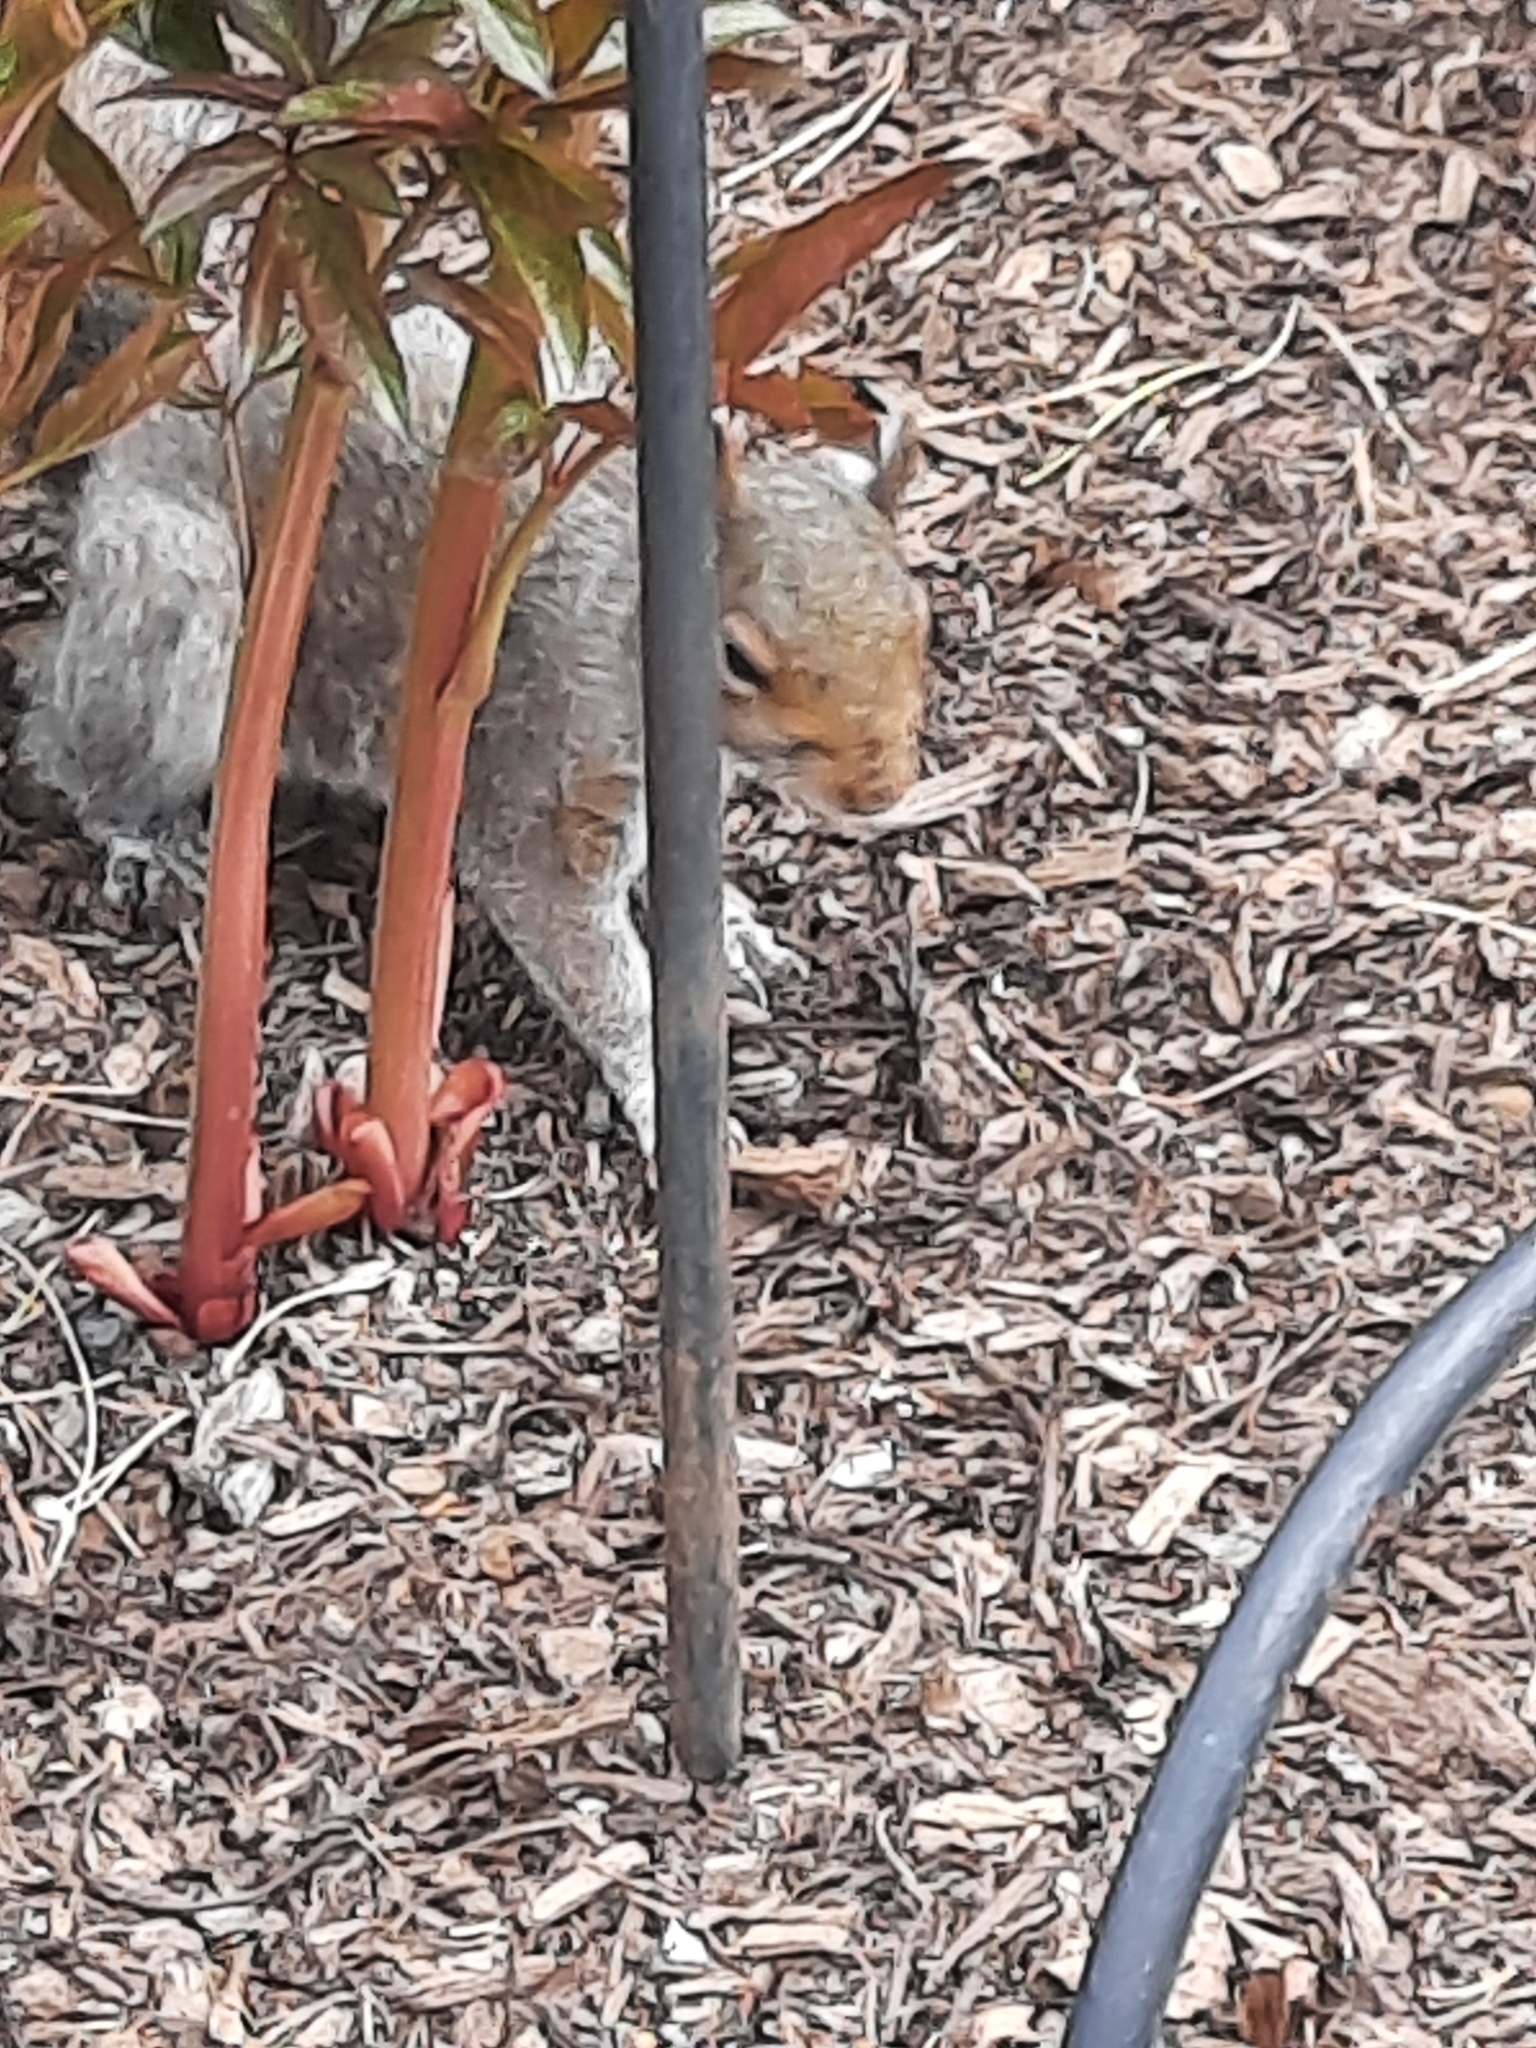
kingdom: Animalia
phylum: Chordata
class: Mammalia
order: Rodentia
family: Sciuridae
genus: Sciurus
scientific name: Sciurus carolinensis
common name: Eastern gray squirrel
